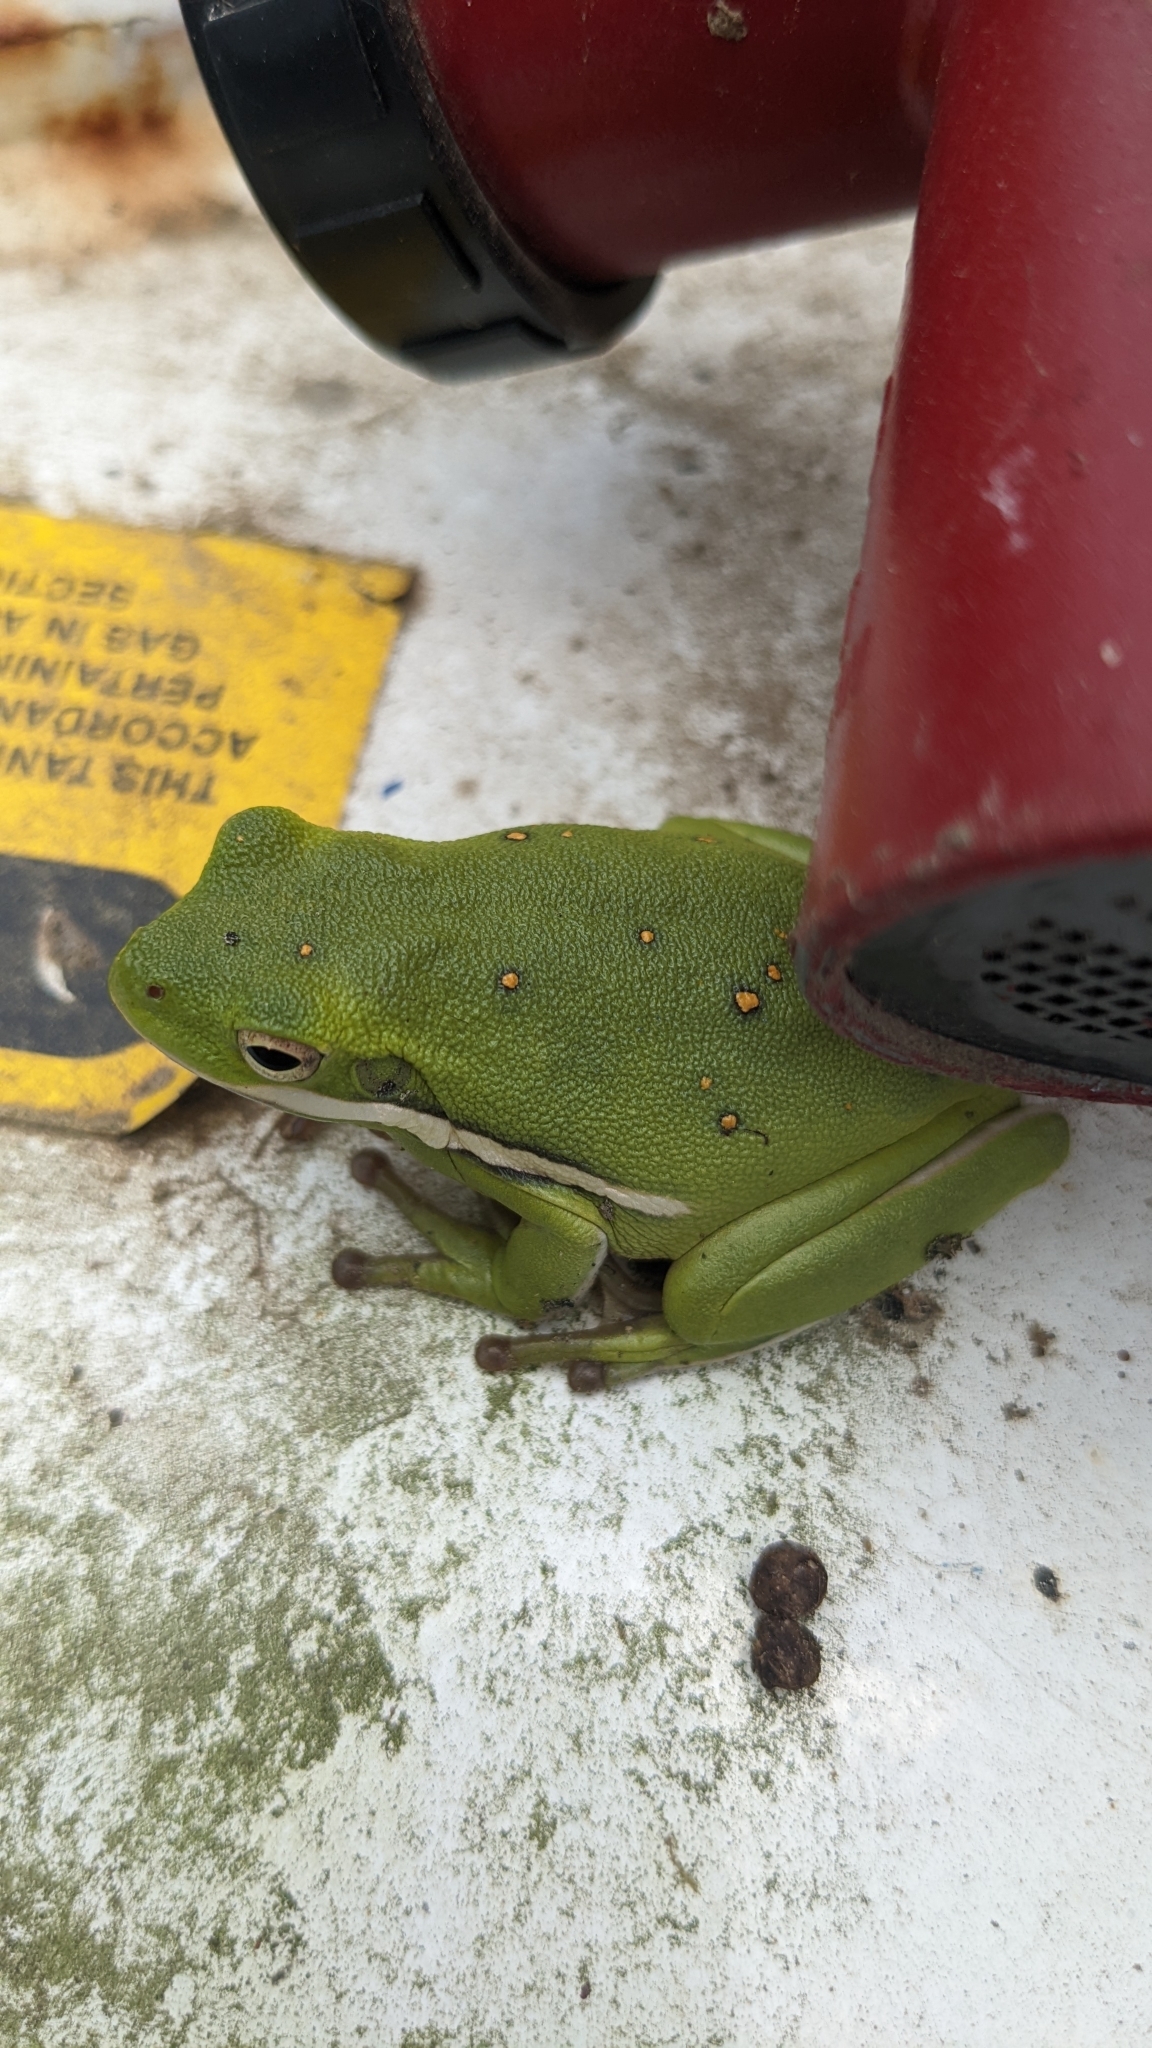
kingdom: Animalia
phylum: Chordata
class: Amphibia
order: Anura
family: Hylidae
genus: Dryophytes
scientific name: Dryophytes cinereus
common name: Green treefrog
